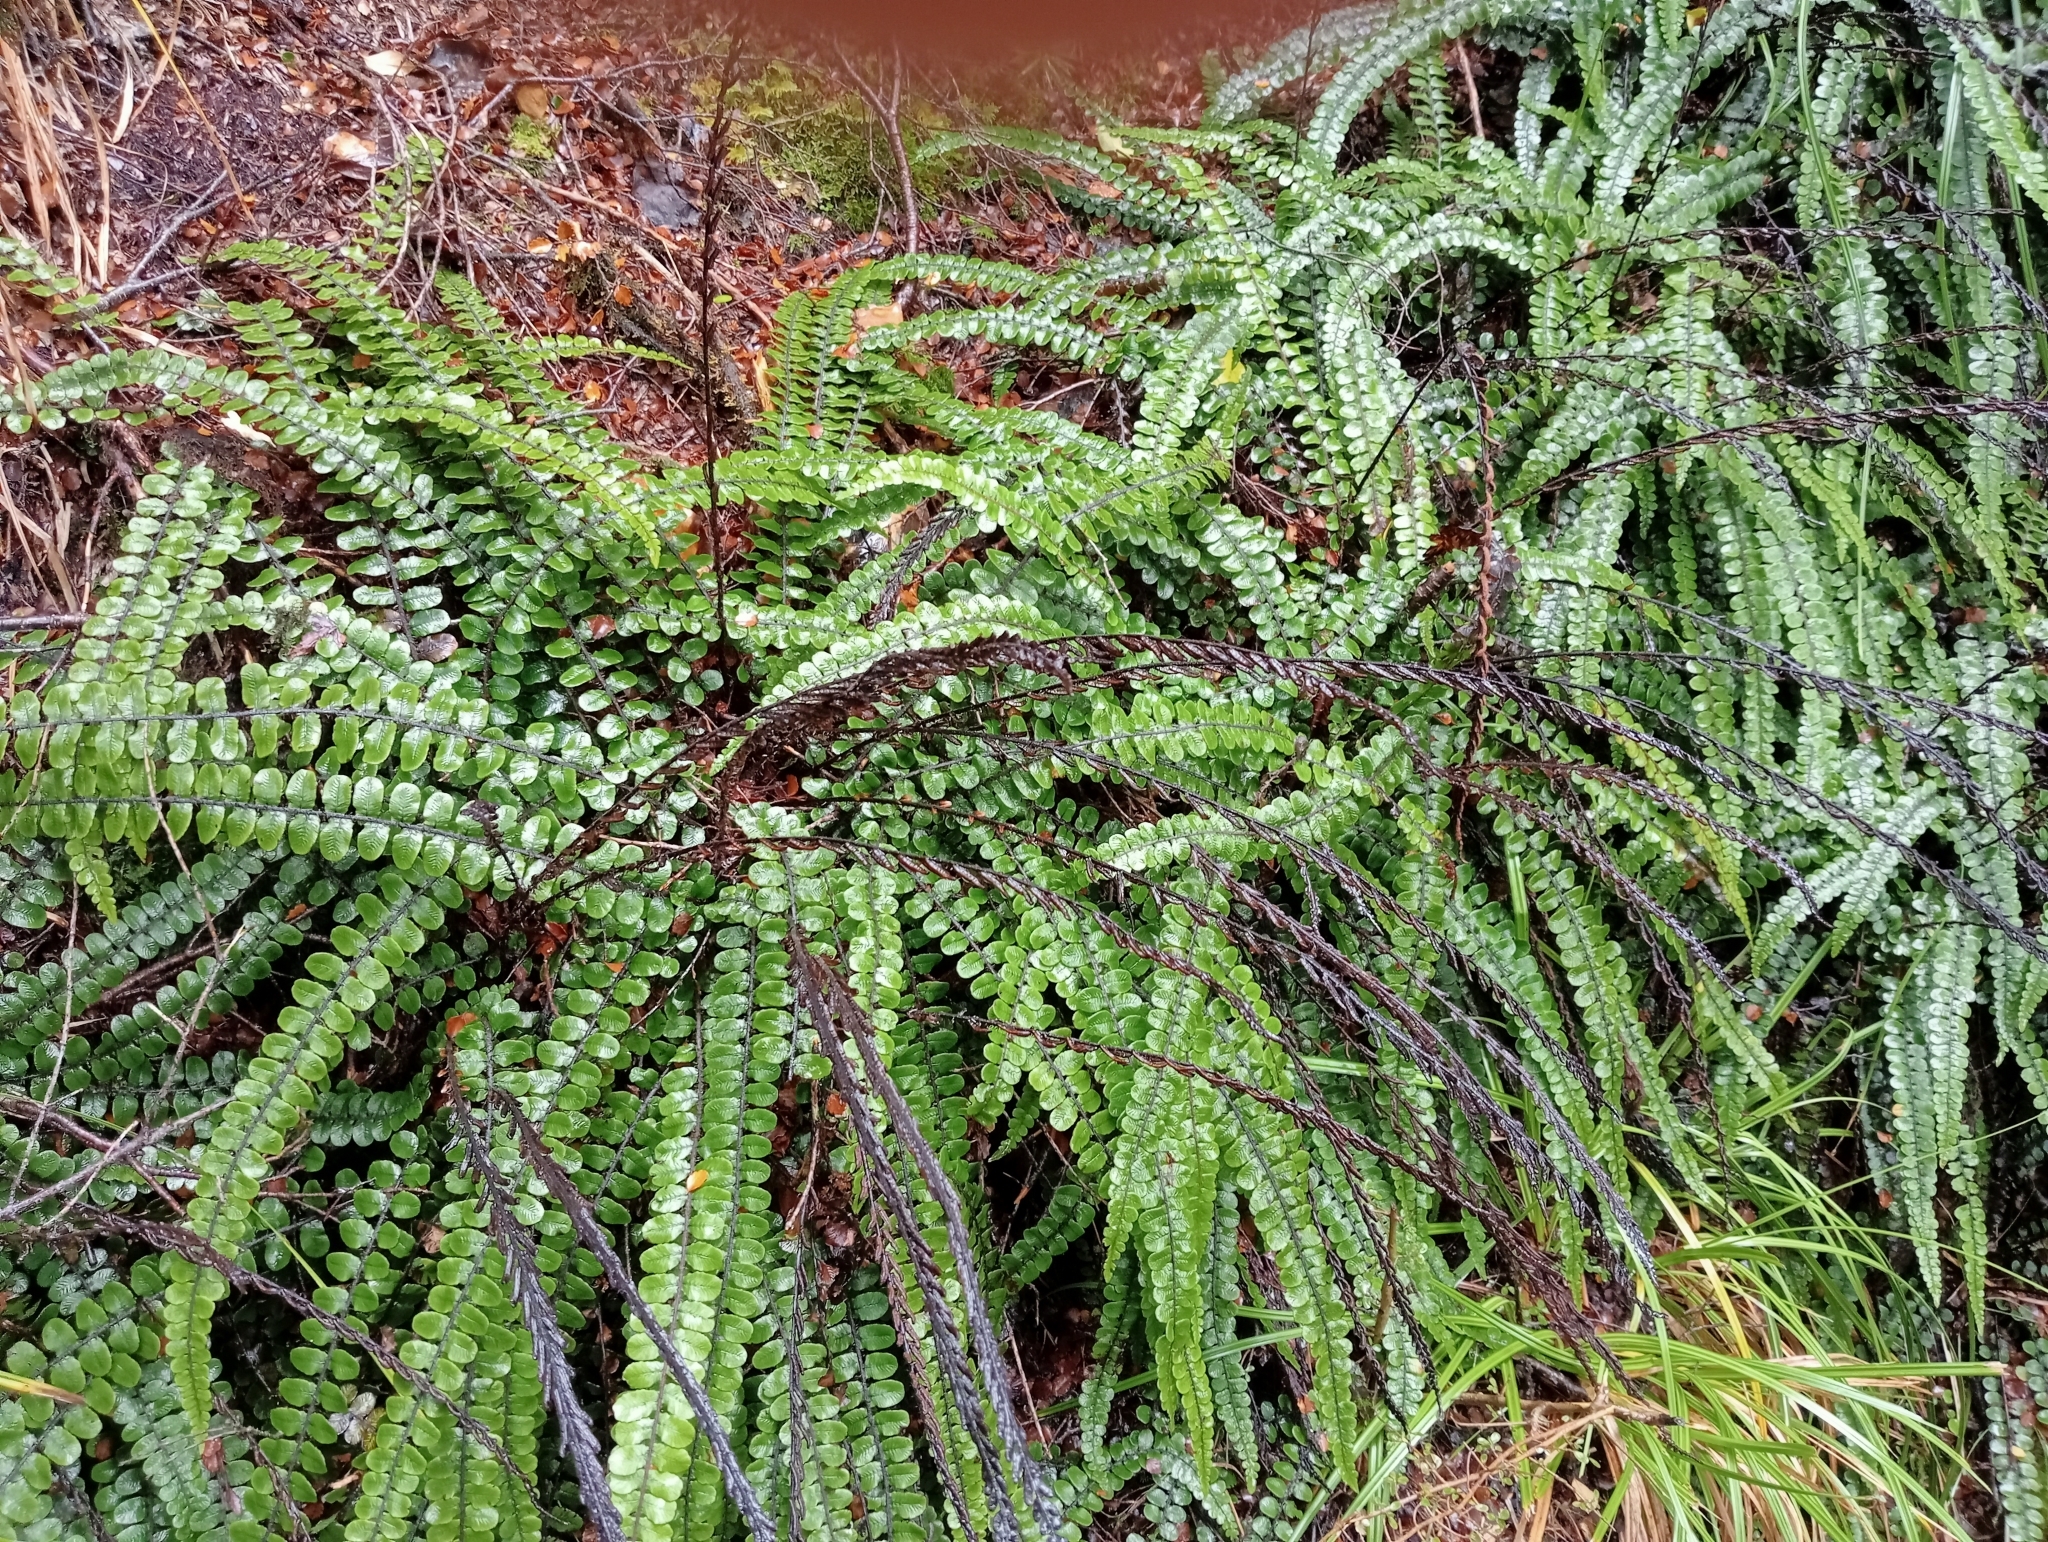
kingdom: Plantae
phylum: Tracheophyta
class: Polypodiopsida
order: Polypodiales
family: Blechnaceae
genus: Cranfillia
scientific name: Cranfillia fluviatilis
